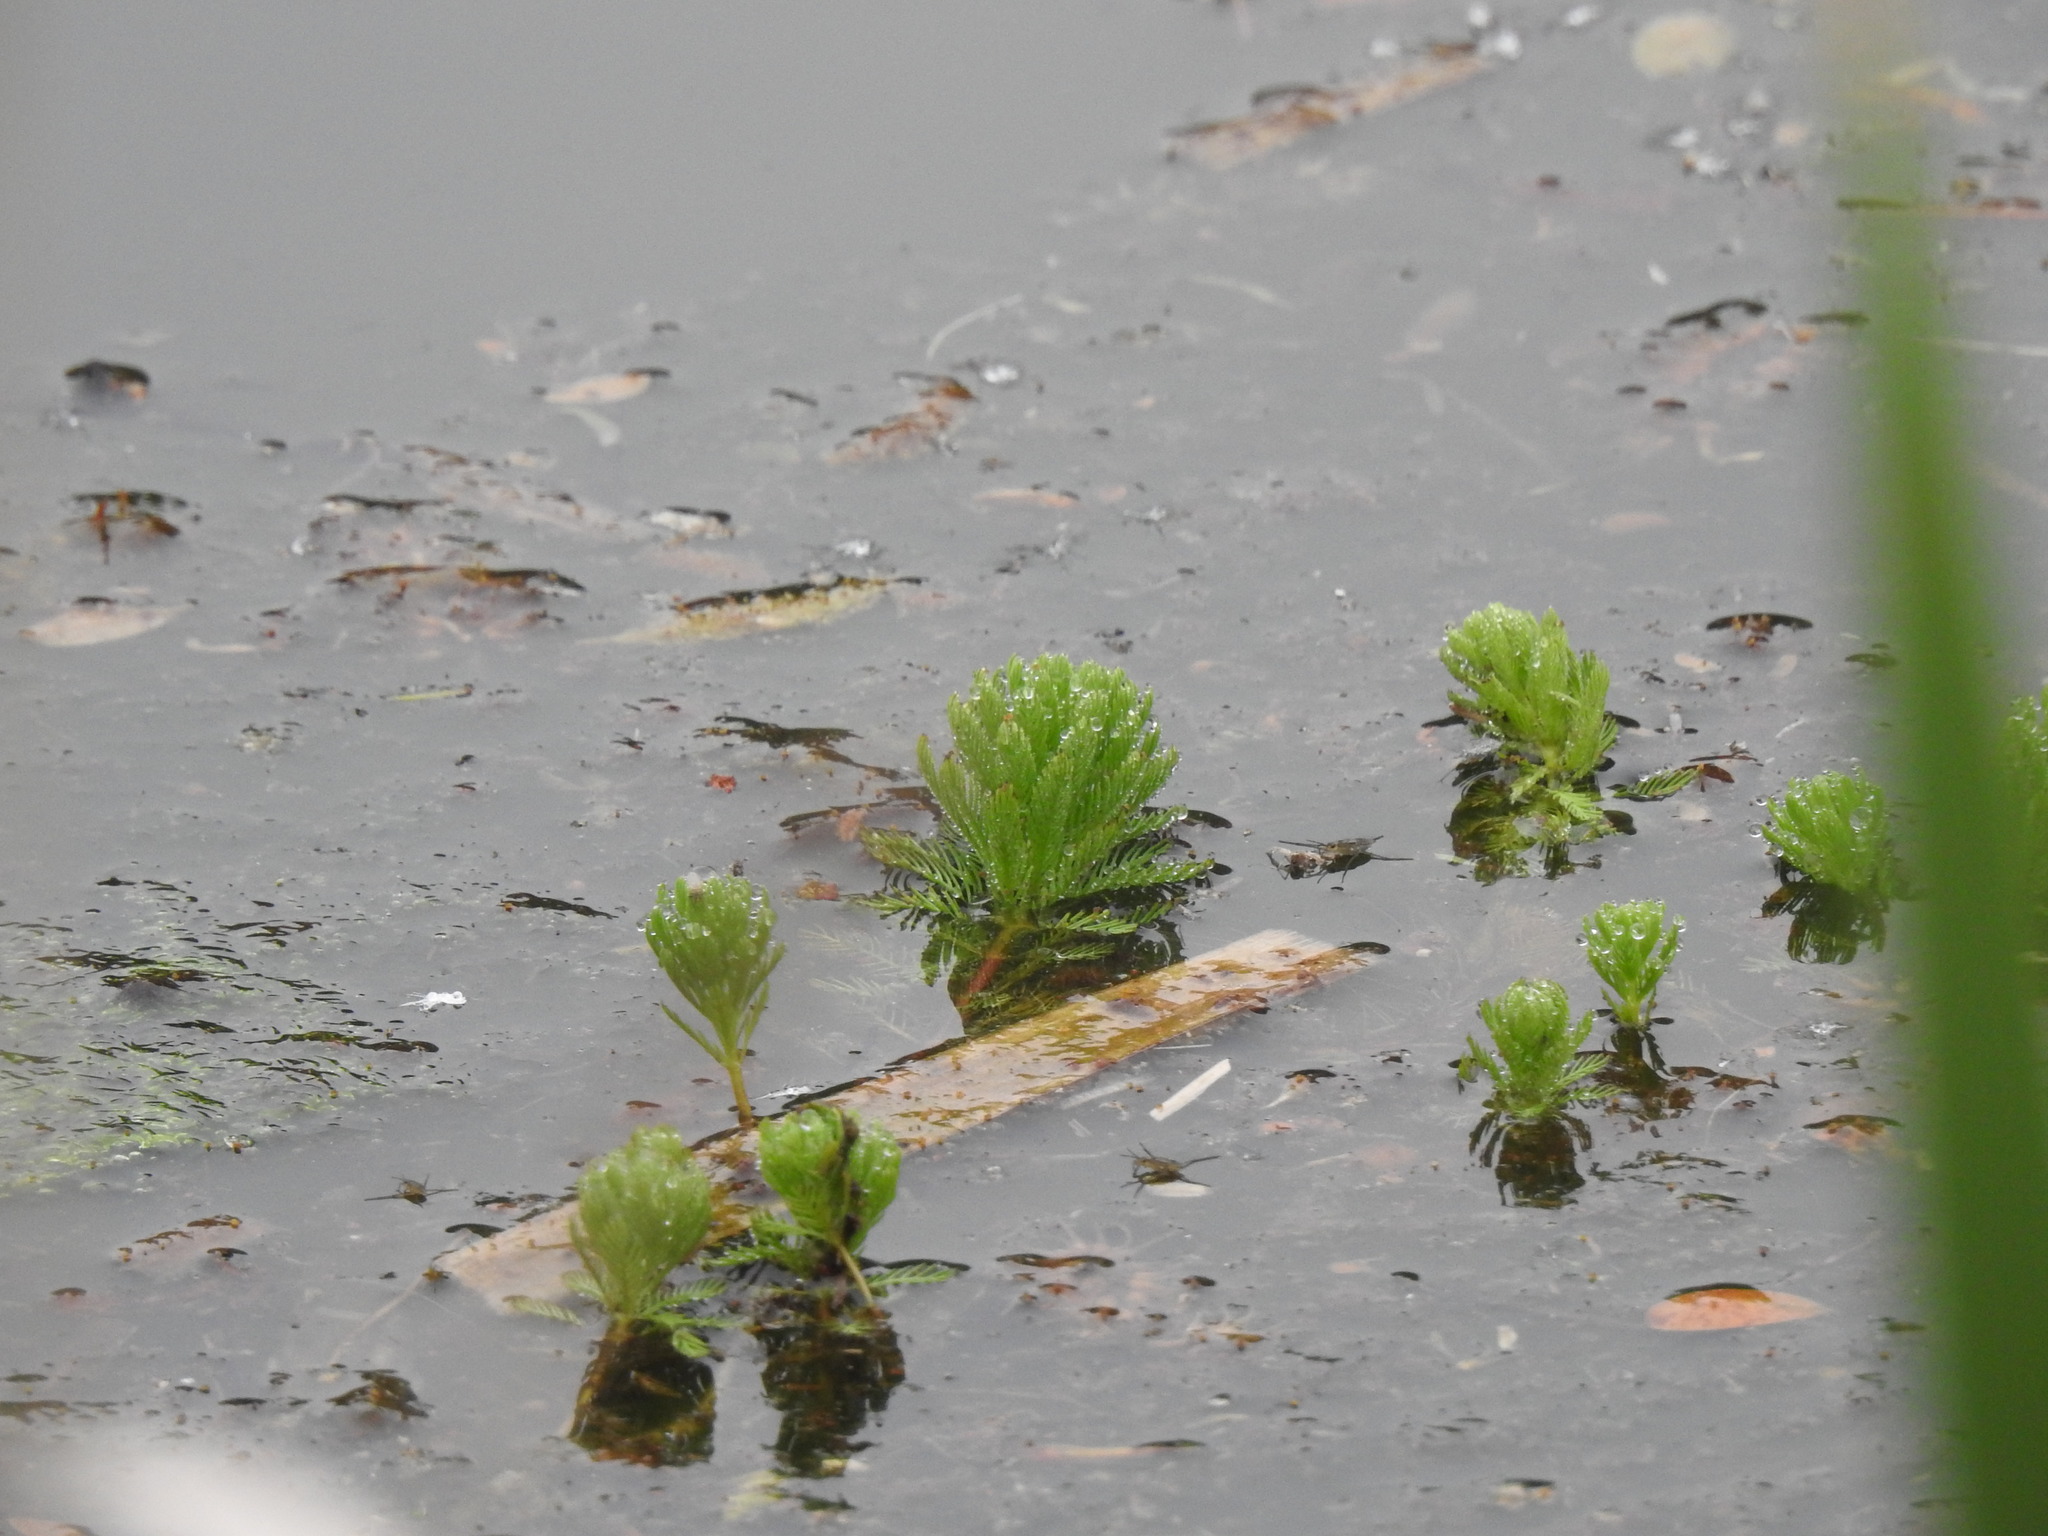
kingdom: Plantae
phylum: Tracheophyta
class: Magnoliopsida
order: Saxifragales
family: Haloragaceae
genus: Myriophyllum
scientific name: Myriophyllum aquaticum
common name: Parrot's feather
